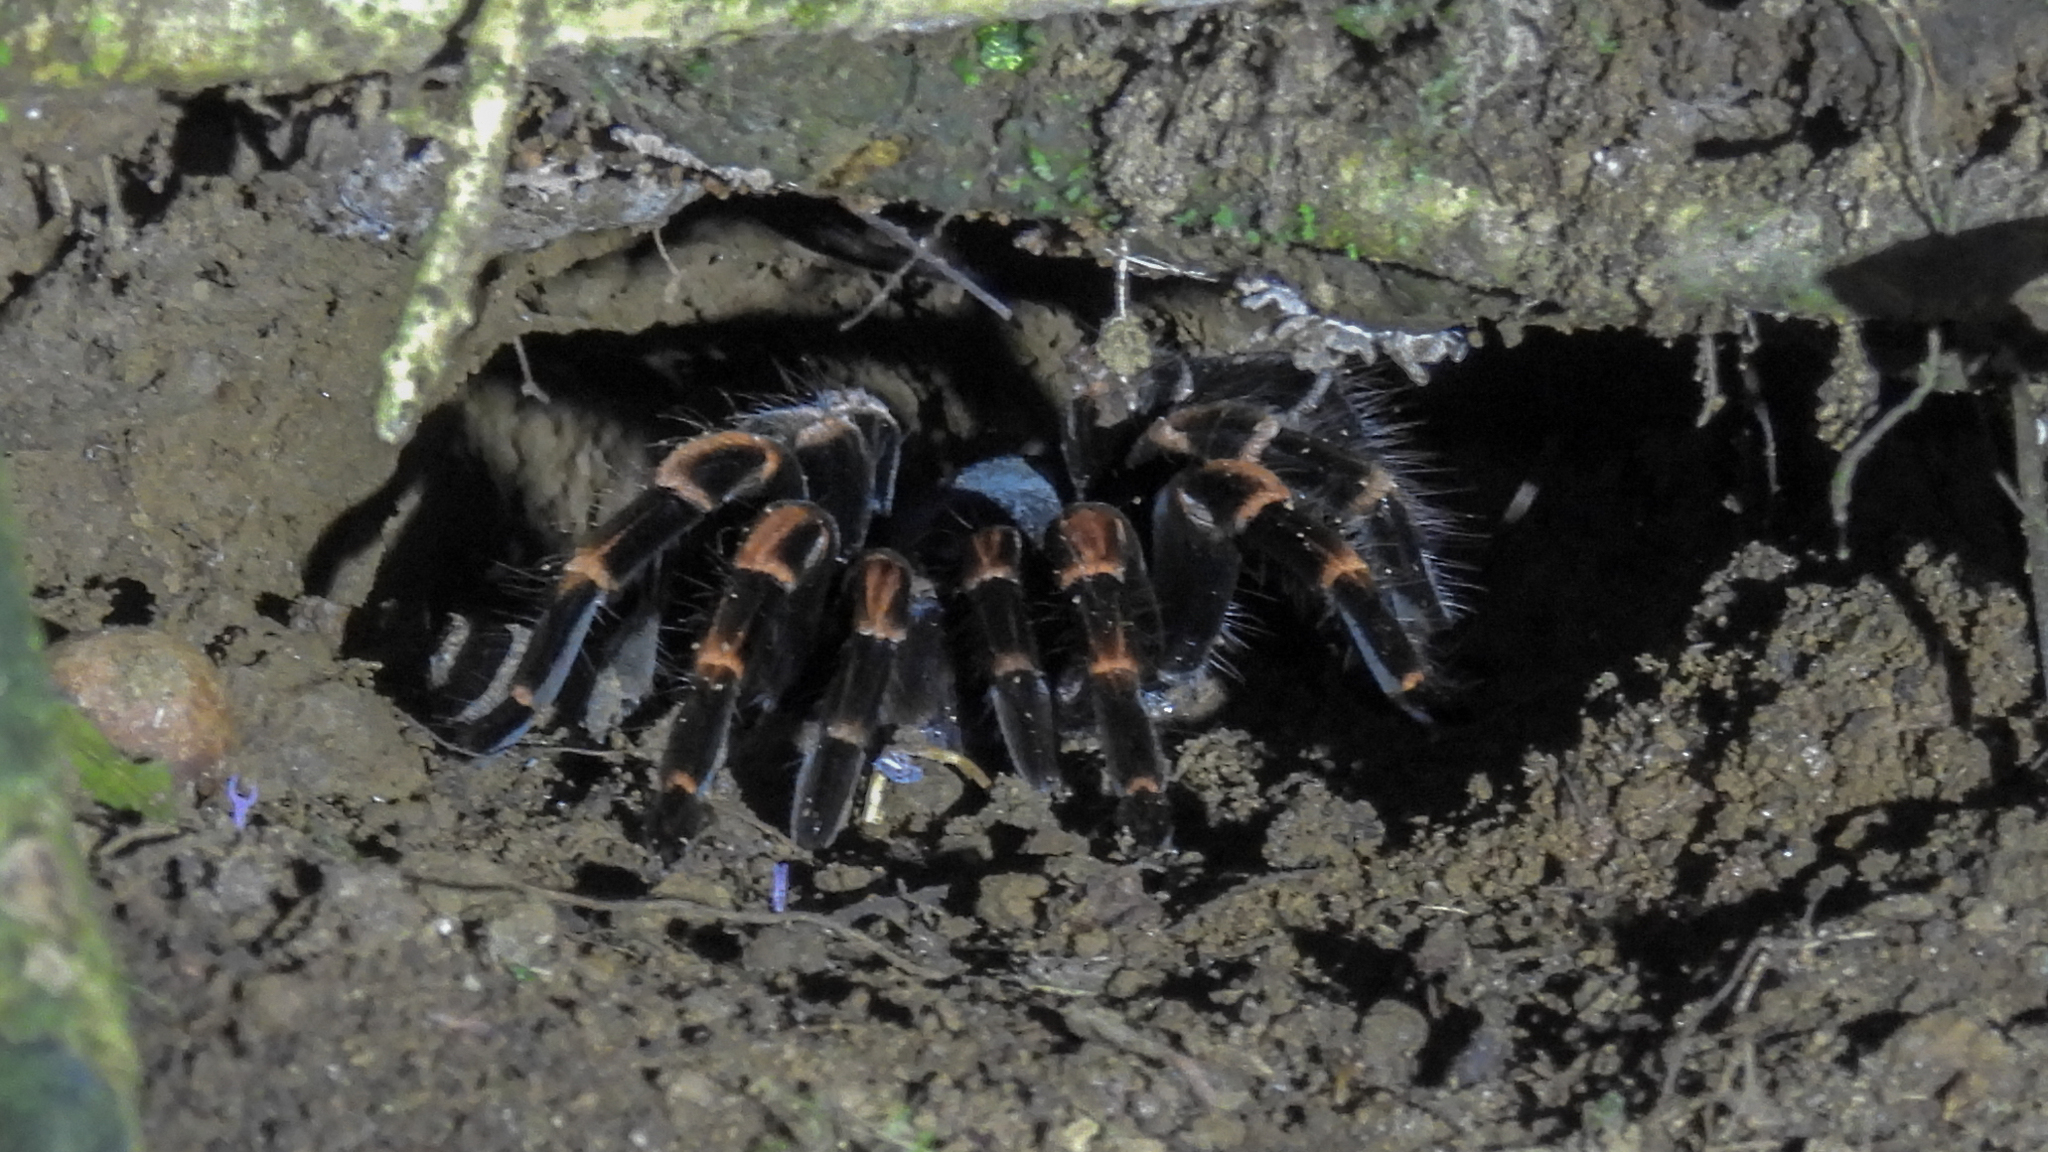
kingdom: Animalia
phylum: Arthropoda
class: Arachnida
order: Araneae
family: Theraphosidae
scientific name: Theraphosidae
